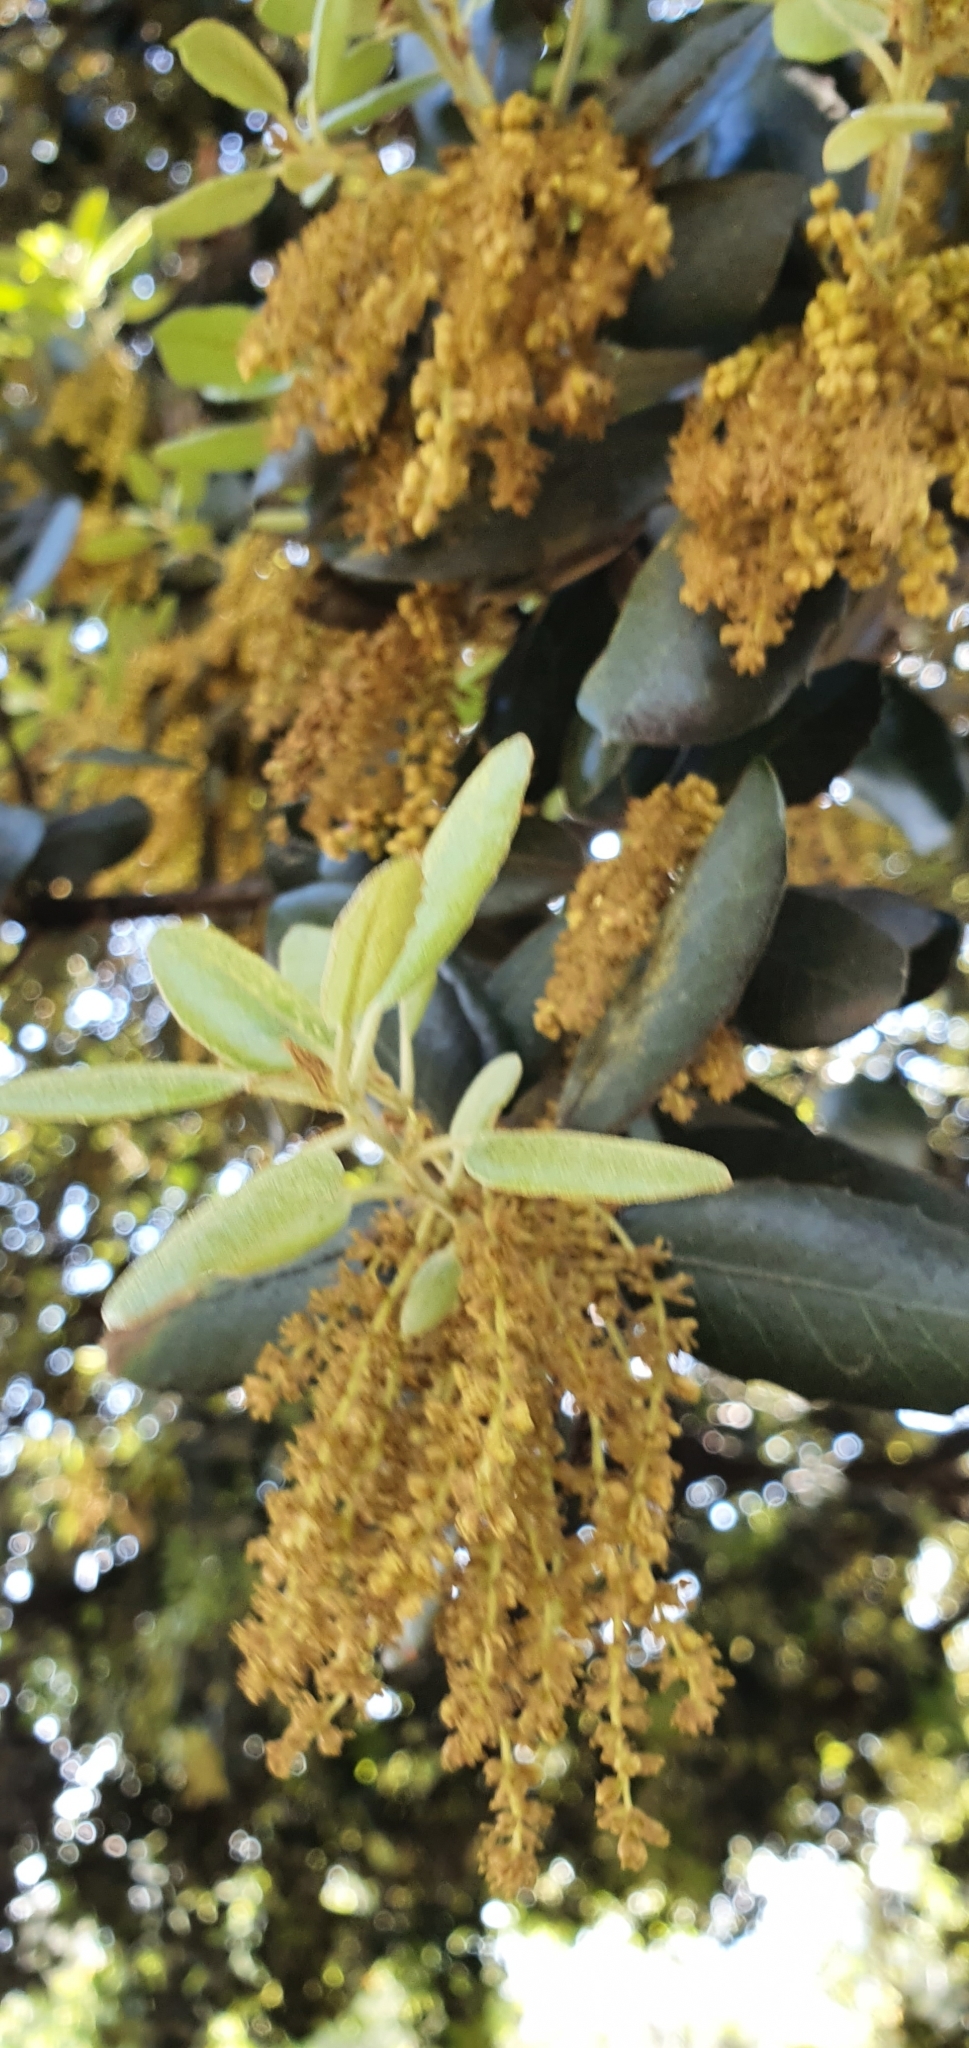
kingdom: Plantae
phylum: Tracheophyta
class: Magnoliopsida
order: Fagales
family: Fagaceae
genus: Quercus
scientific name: Quercus rotundifolia
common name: Holm oak
